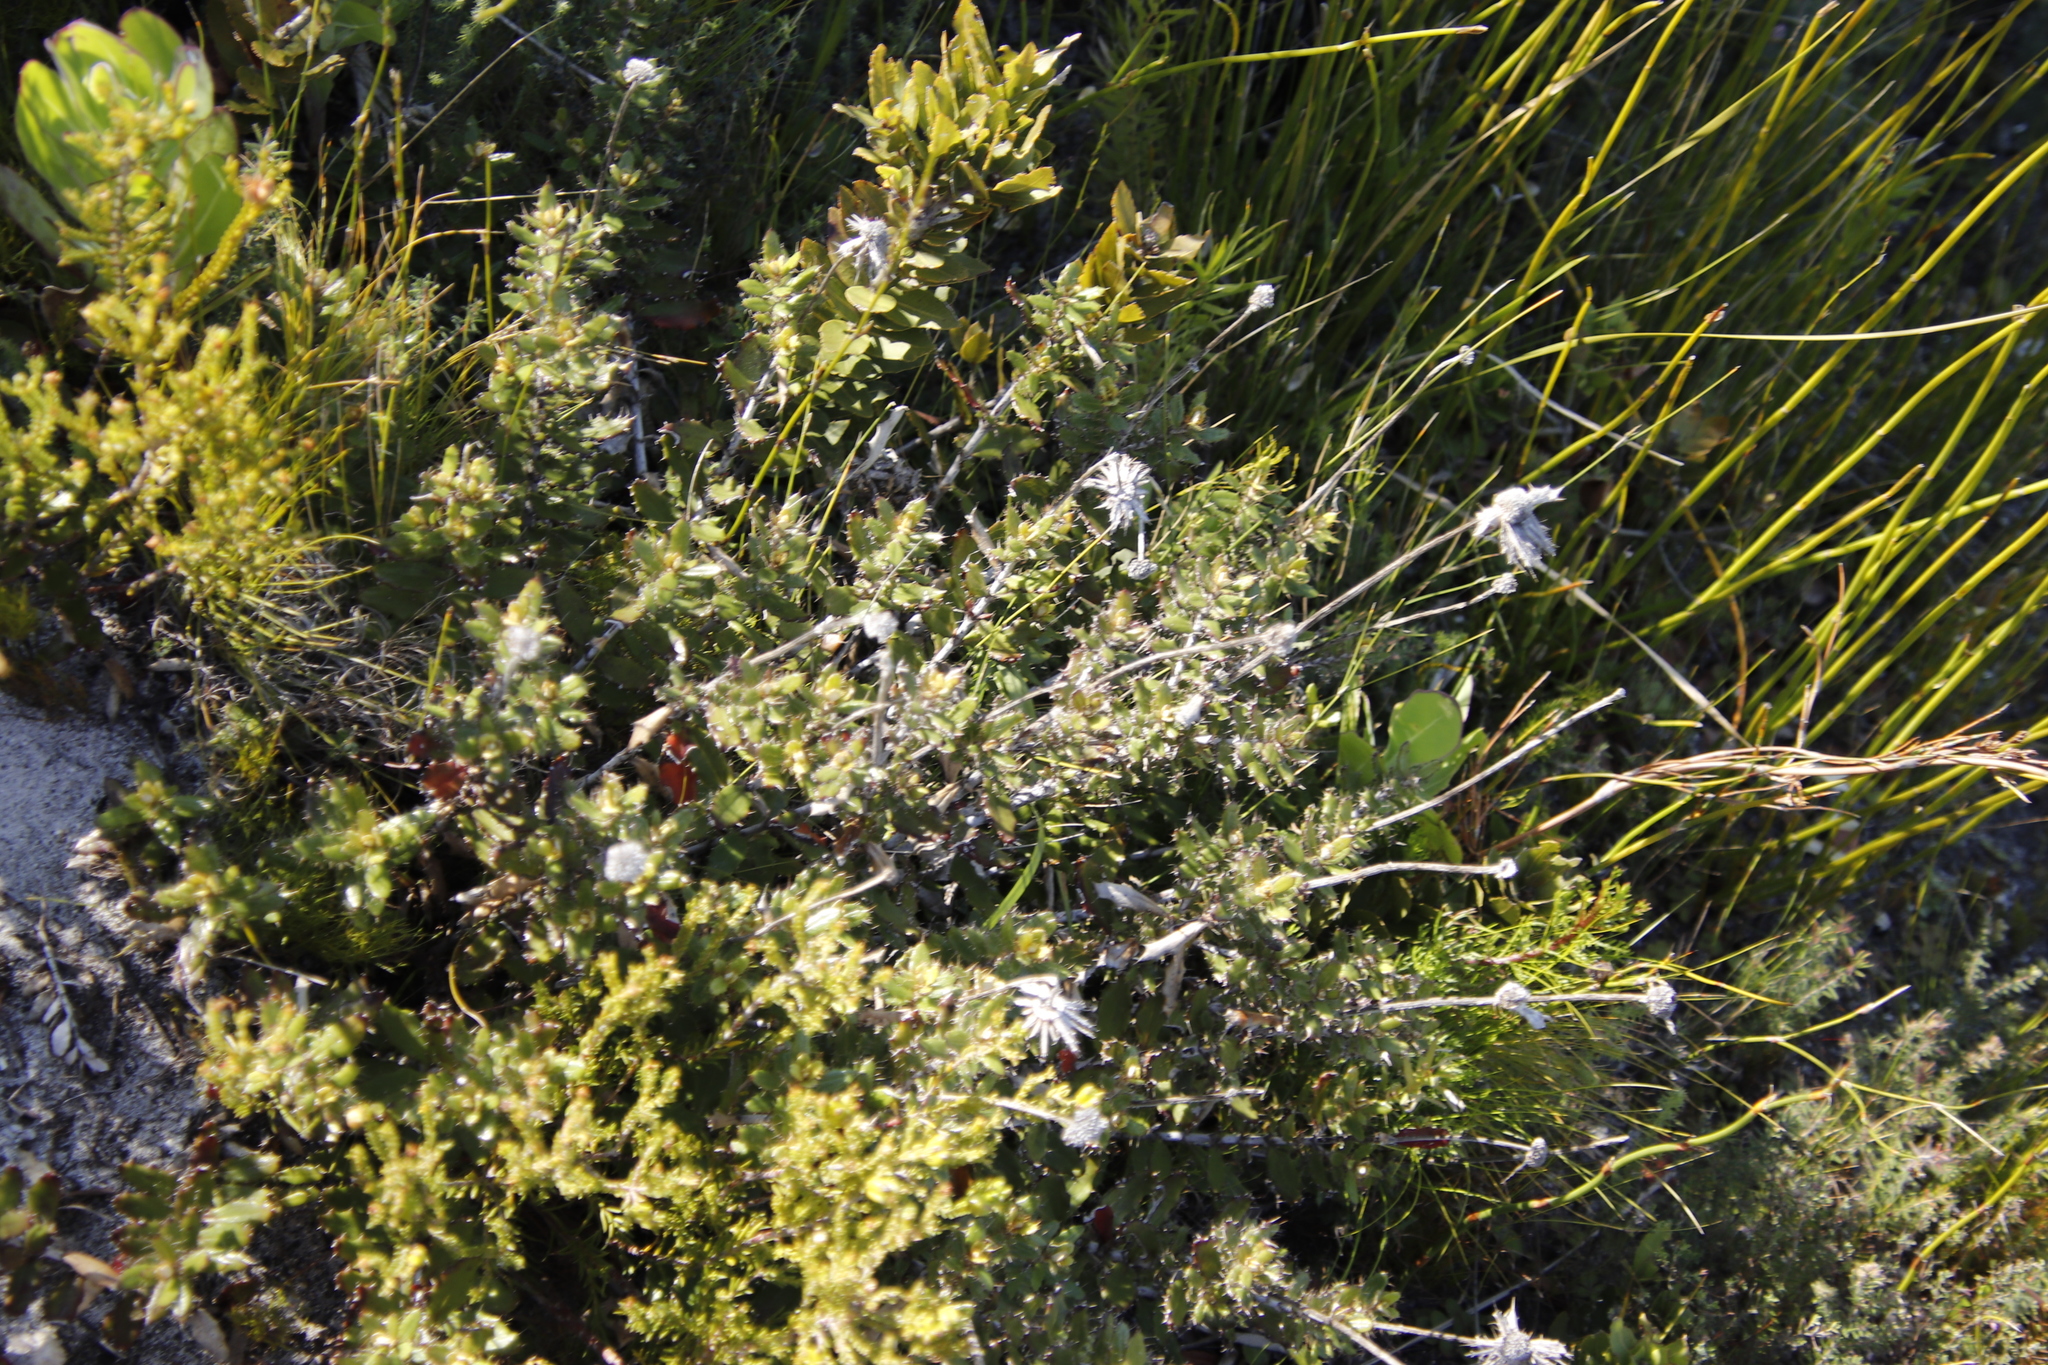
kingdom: Plantae
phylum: Tracheophyta
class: Magnoliopsida
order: Asterales
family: Asteraceae
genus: Berkheya
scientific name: Berkheya barbata
